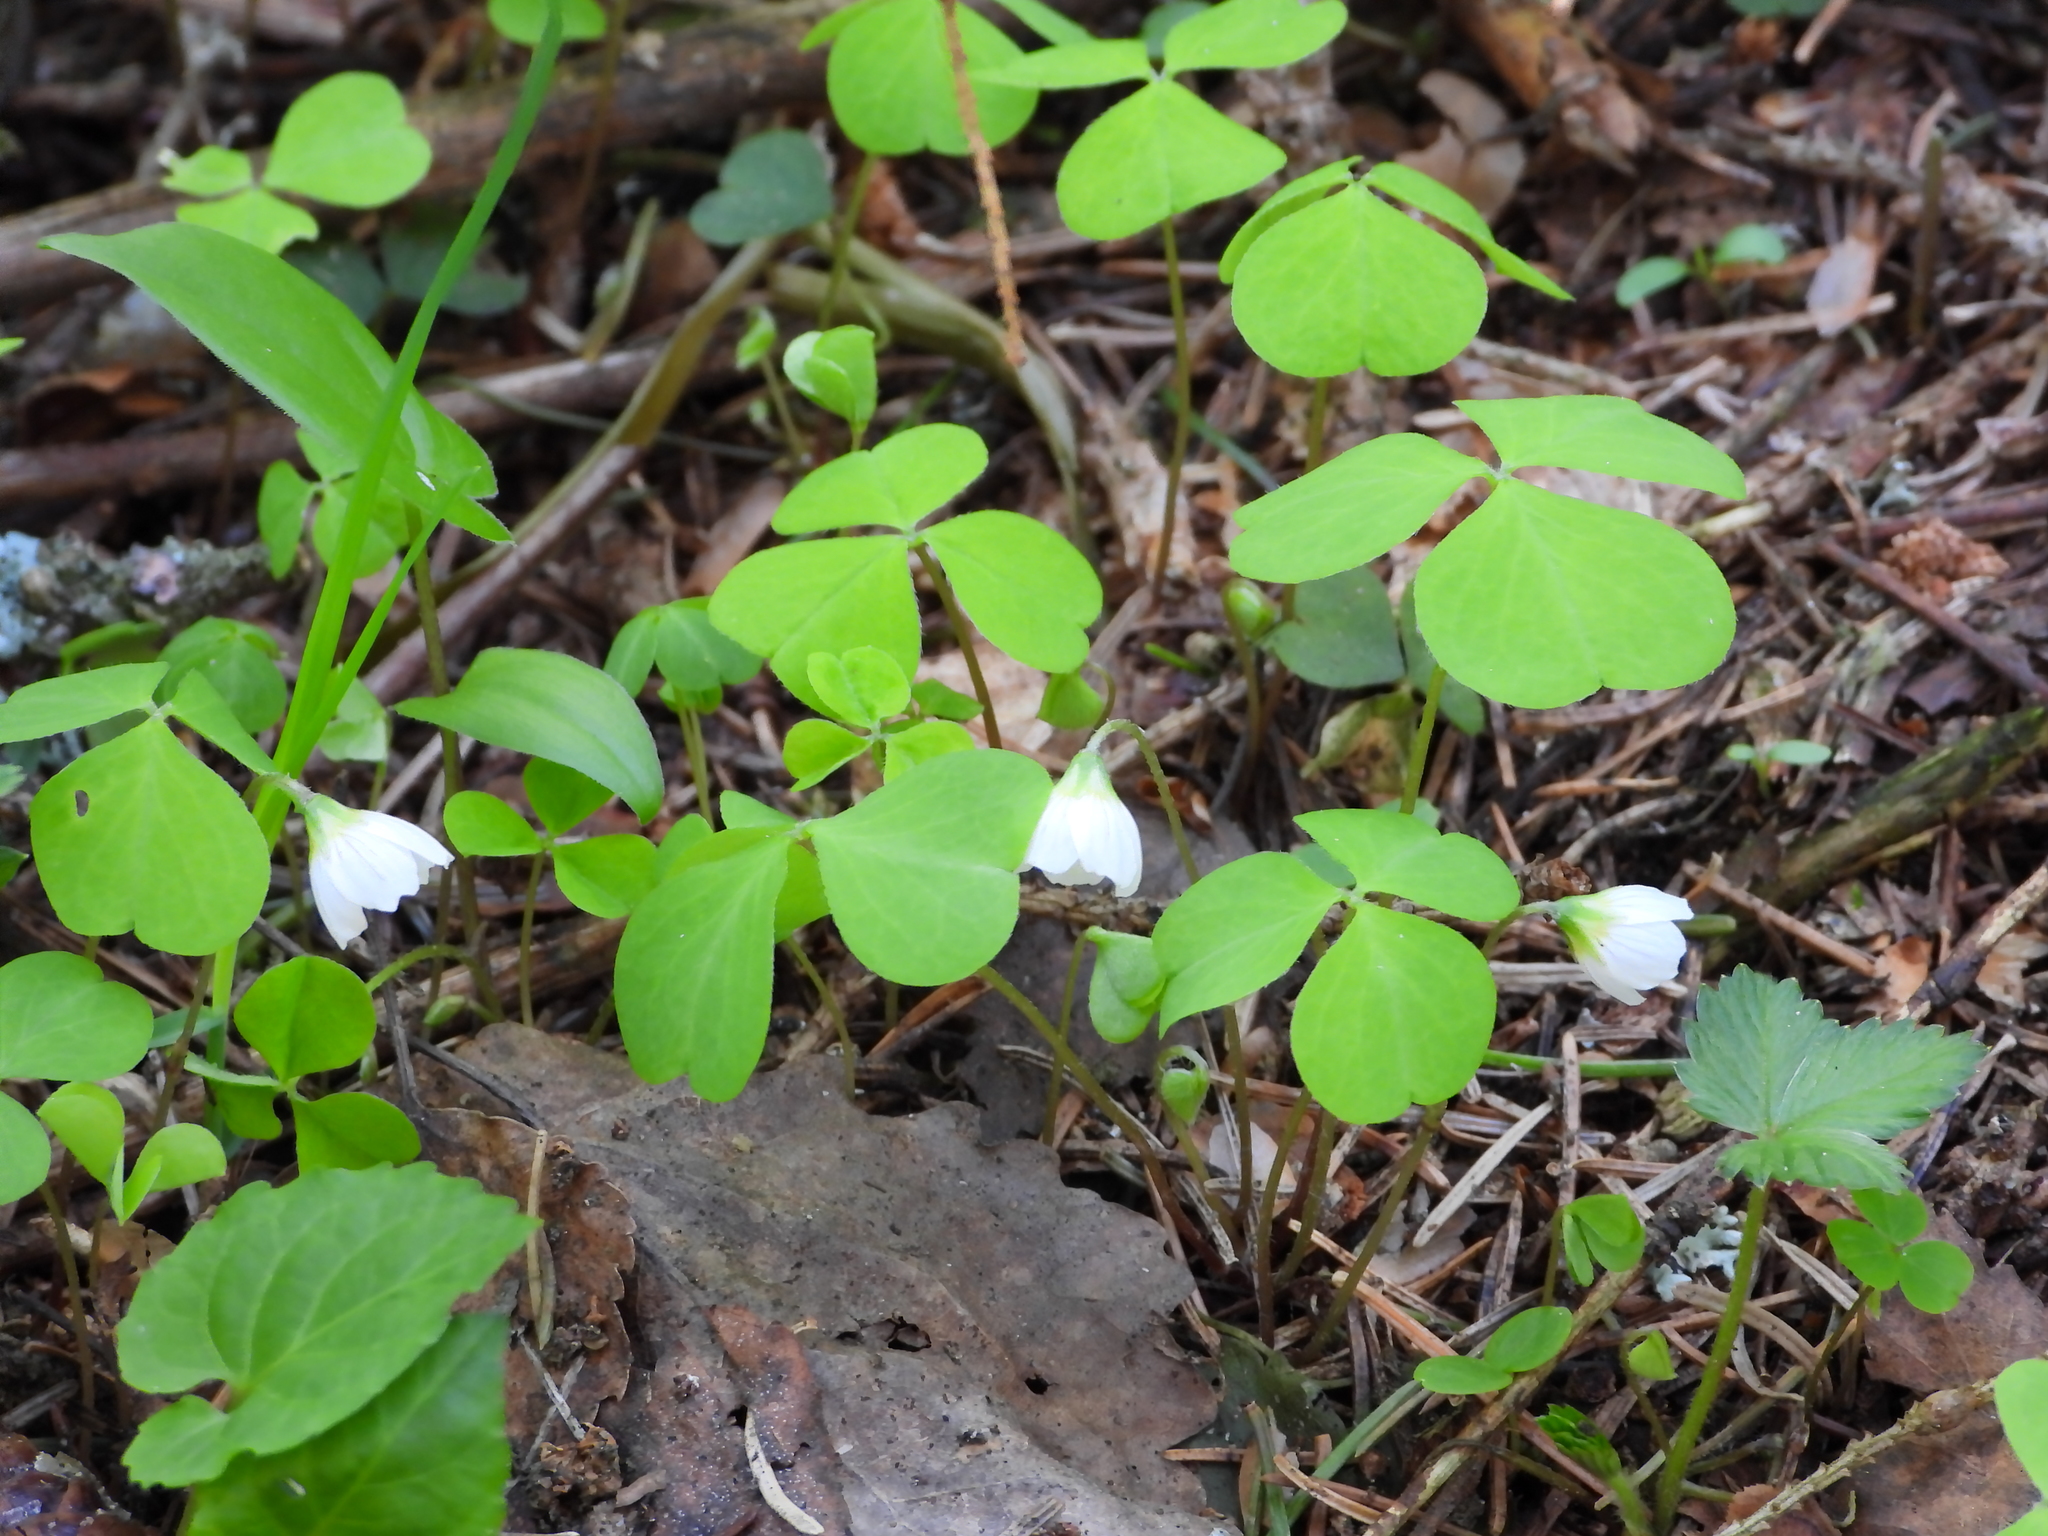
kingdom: Plantae
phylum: Tracheophyta
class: Magnoliopsida
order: Oxalidales
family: Oxalidaceae
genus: Oxalis
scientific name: Oxalis acetosella
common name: Wood-sorrel
